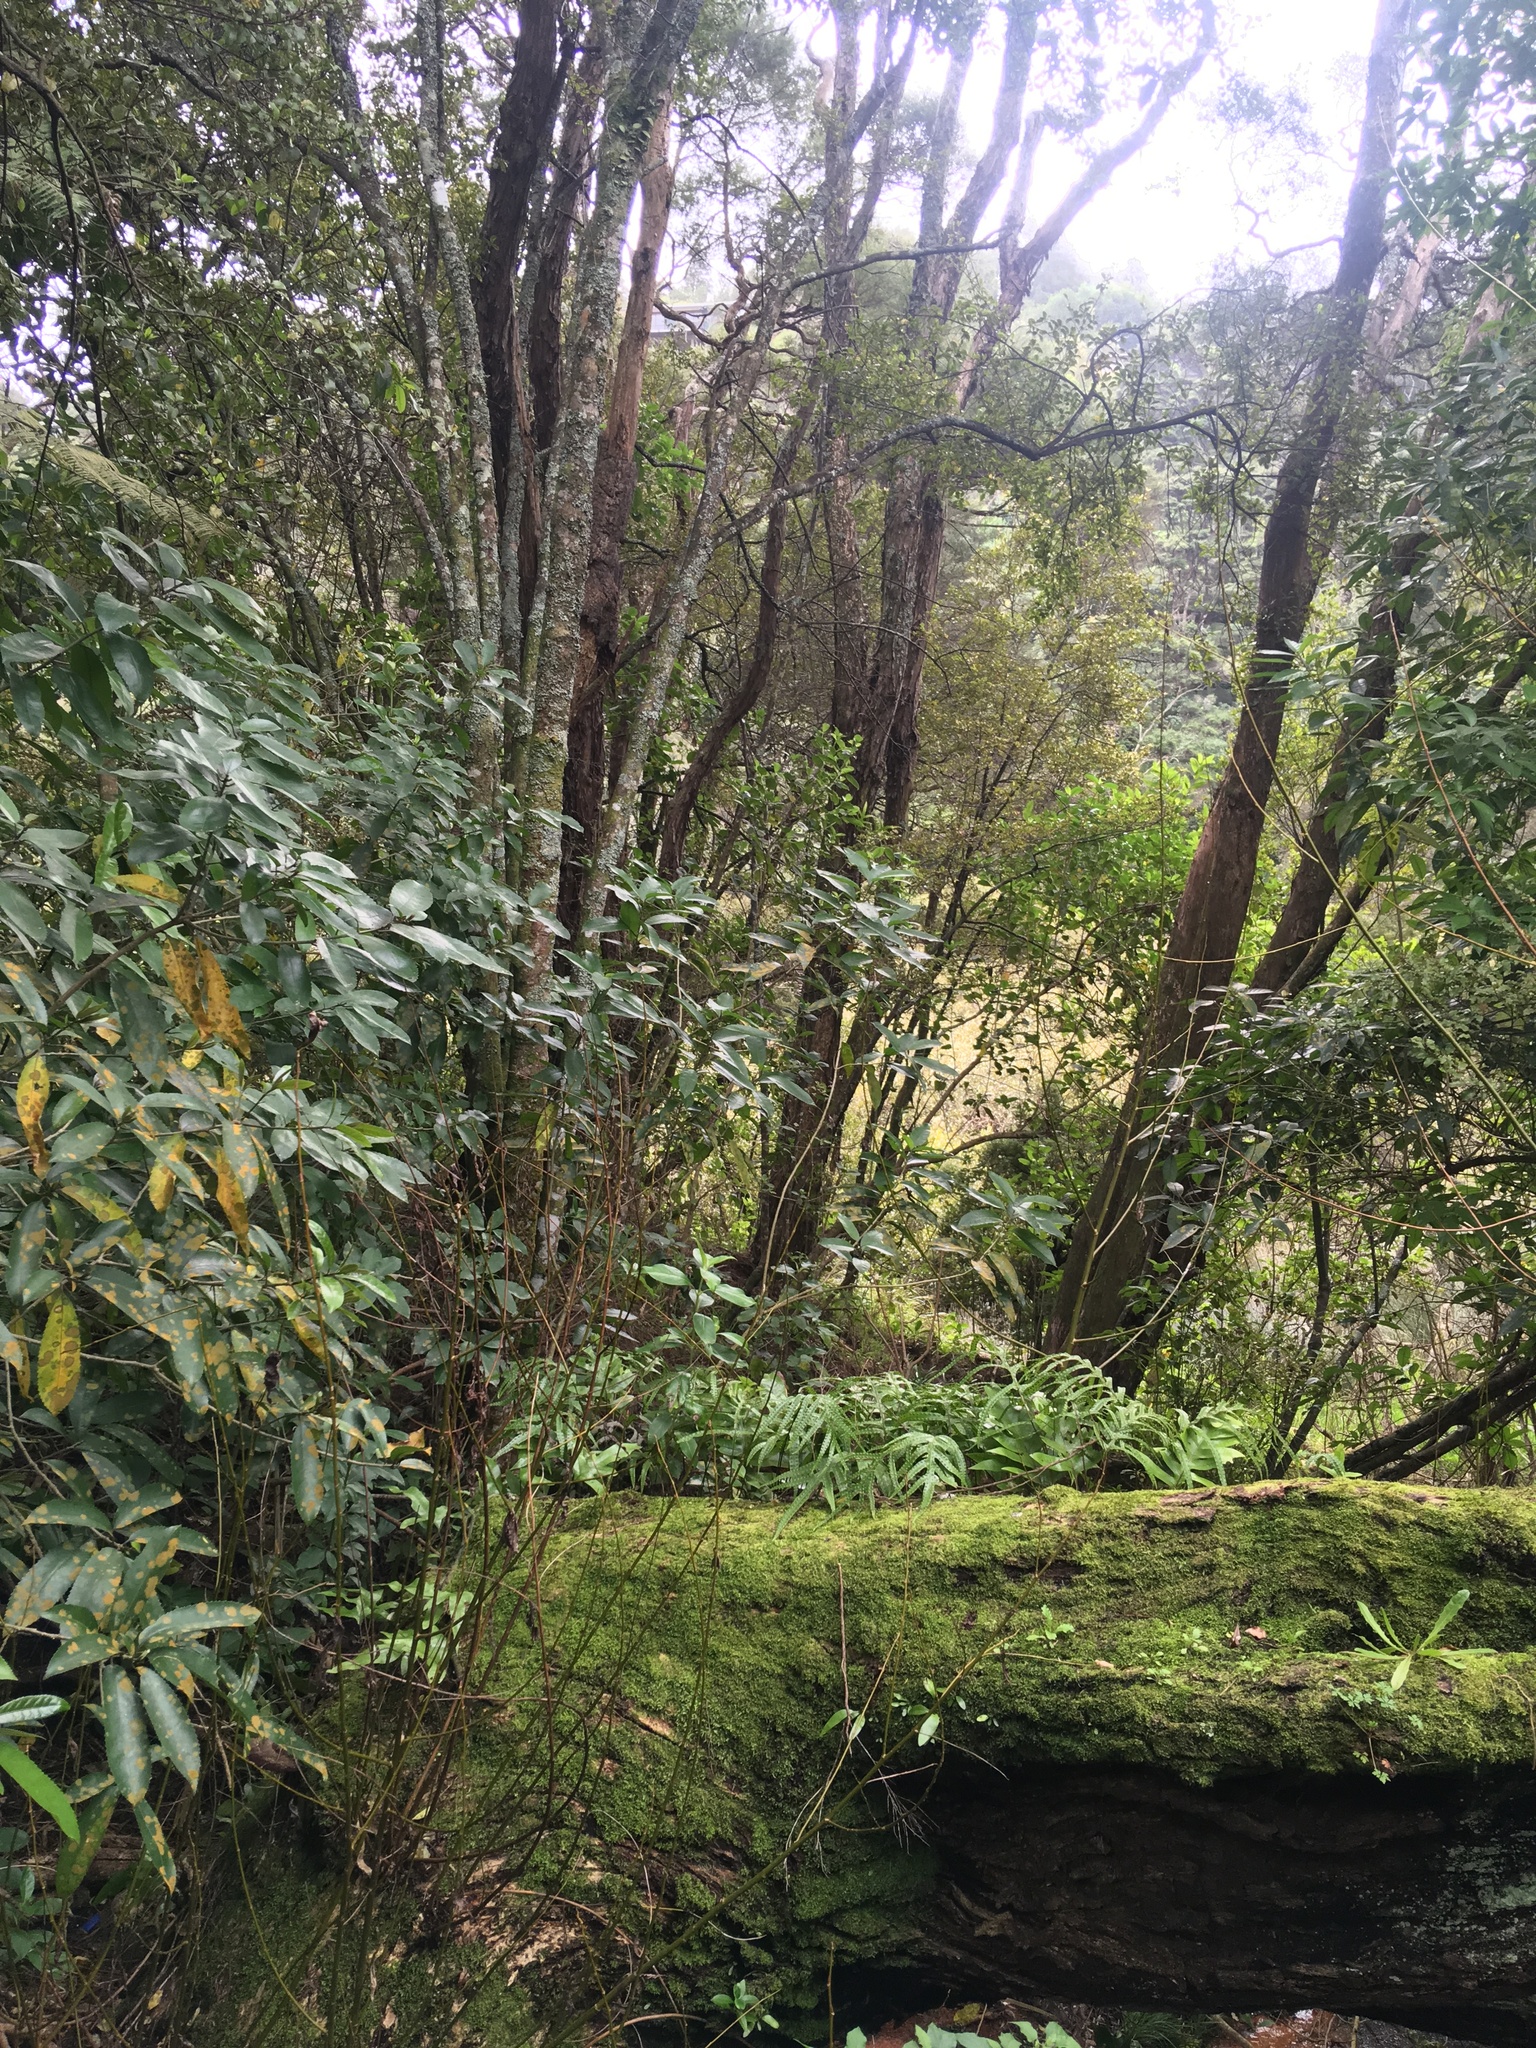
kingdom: Plantae
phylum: Tracheophyta
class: Magnoliopsida
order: Malpighiales
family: Violaceae
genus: Melicytus
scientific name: Melicytus ramiflorus
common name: Mahoe
